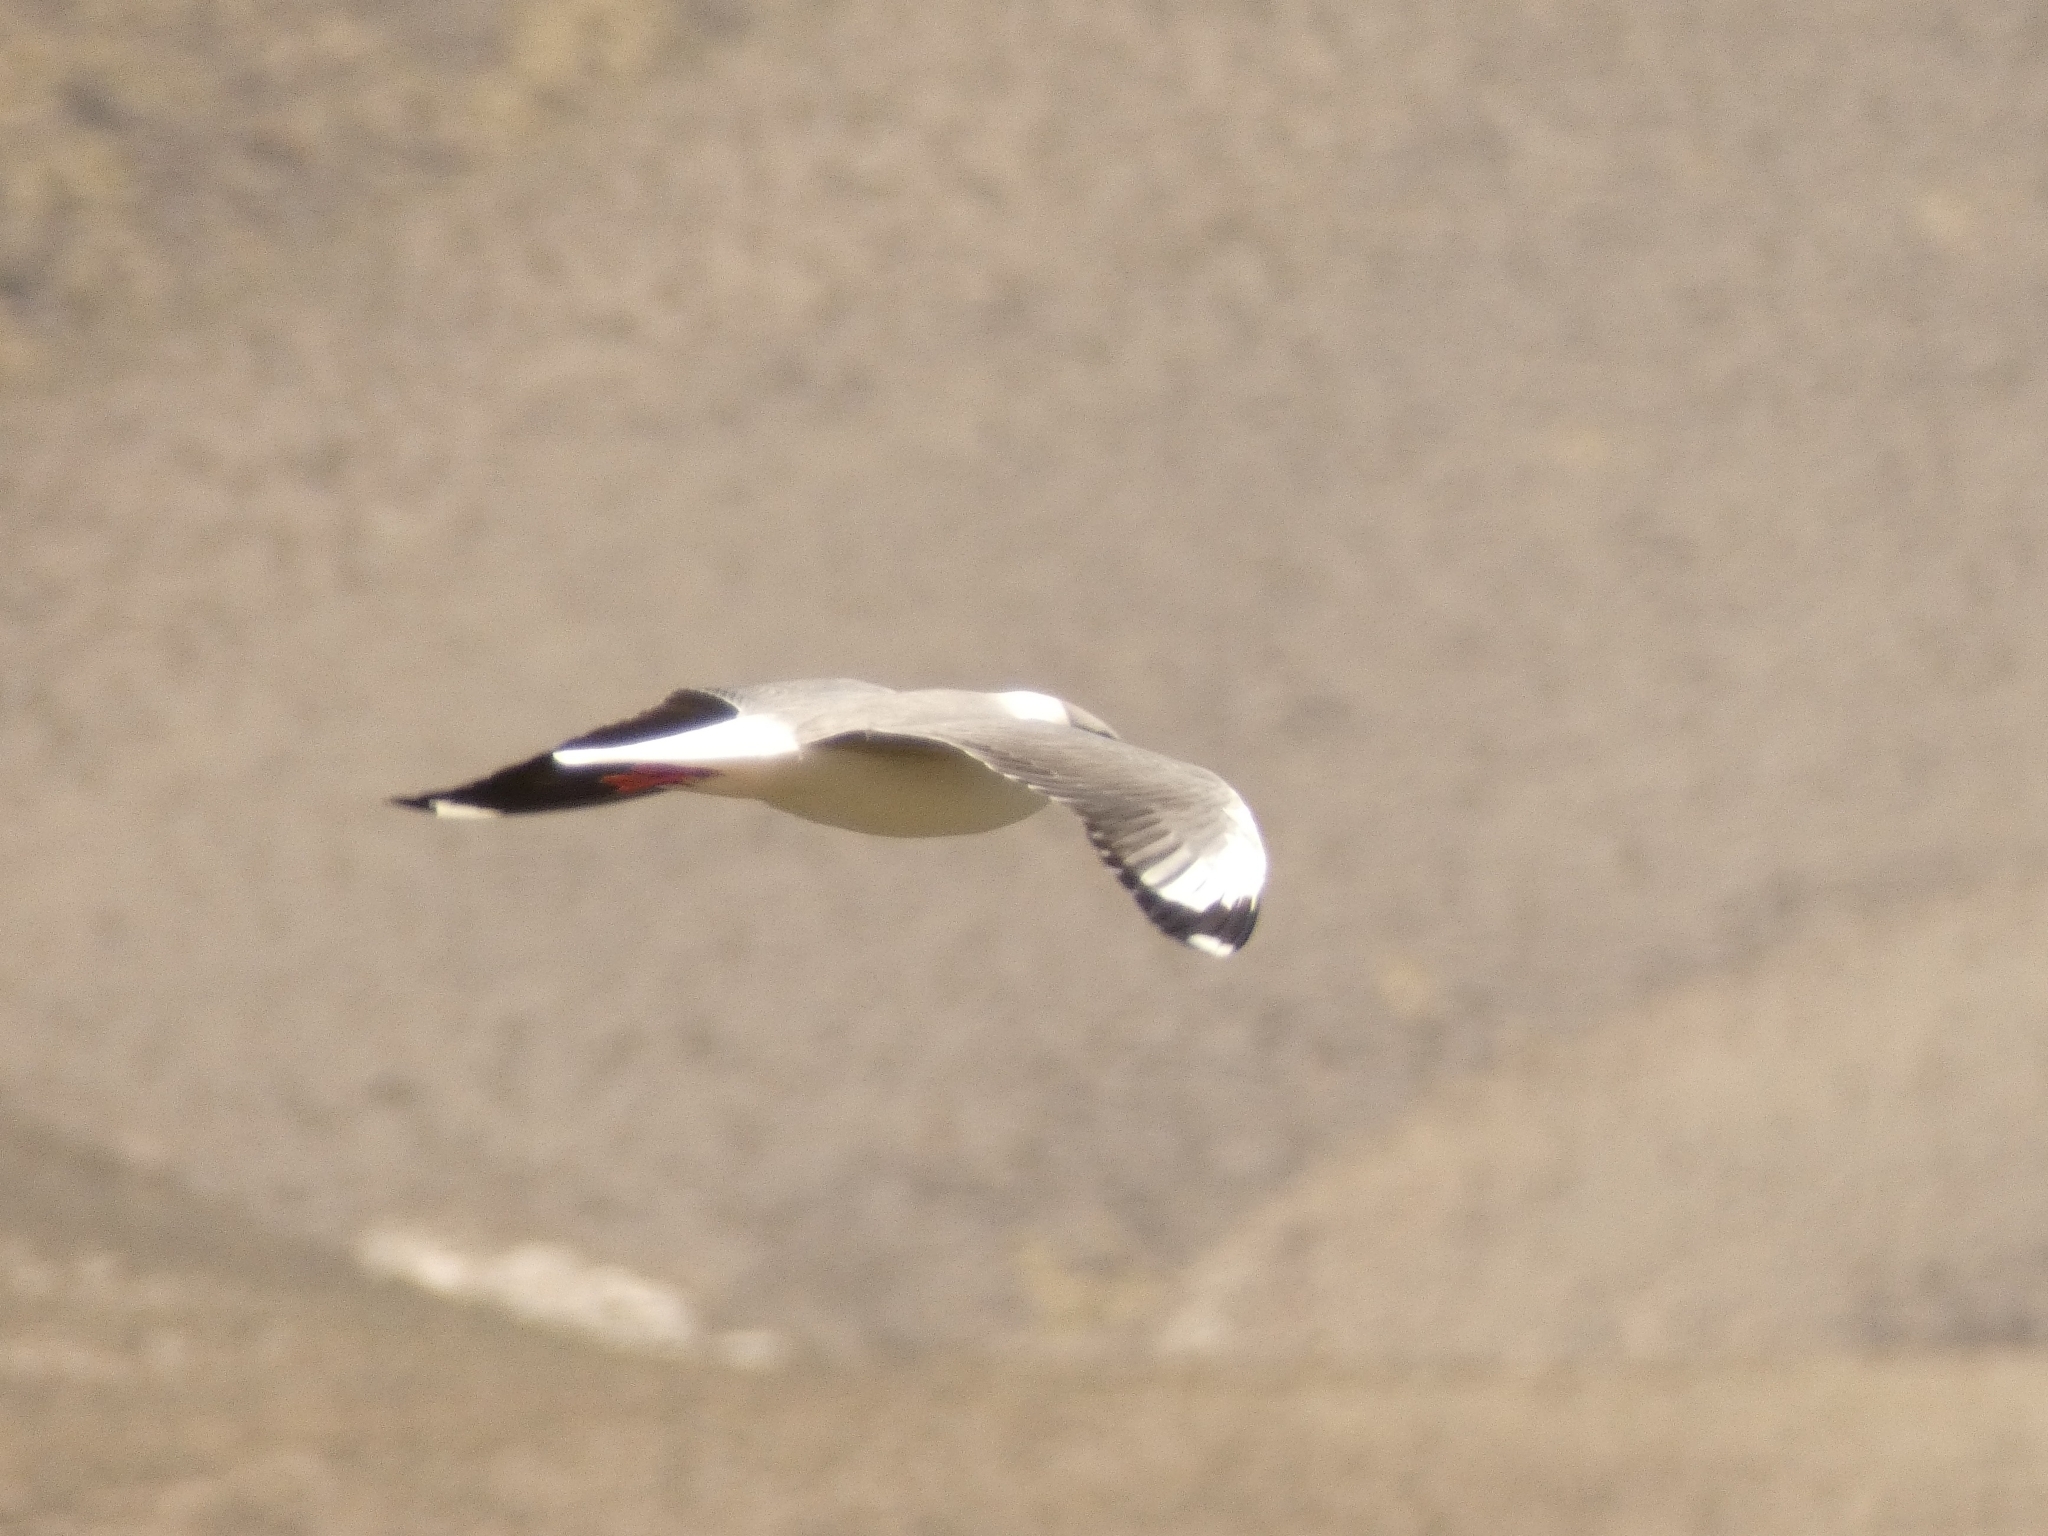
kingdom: Animalia
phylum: Chordata
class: Aves
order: Charadriiformes
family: Laridae
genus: Chroicocephalus
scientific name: Chroicocephalus cirrocephalus
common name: Grey-headed gull
